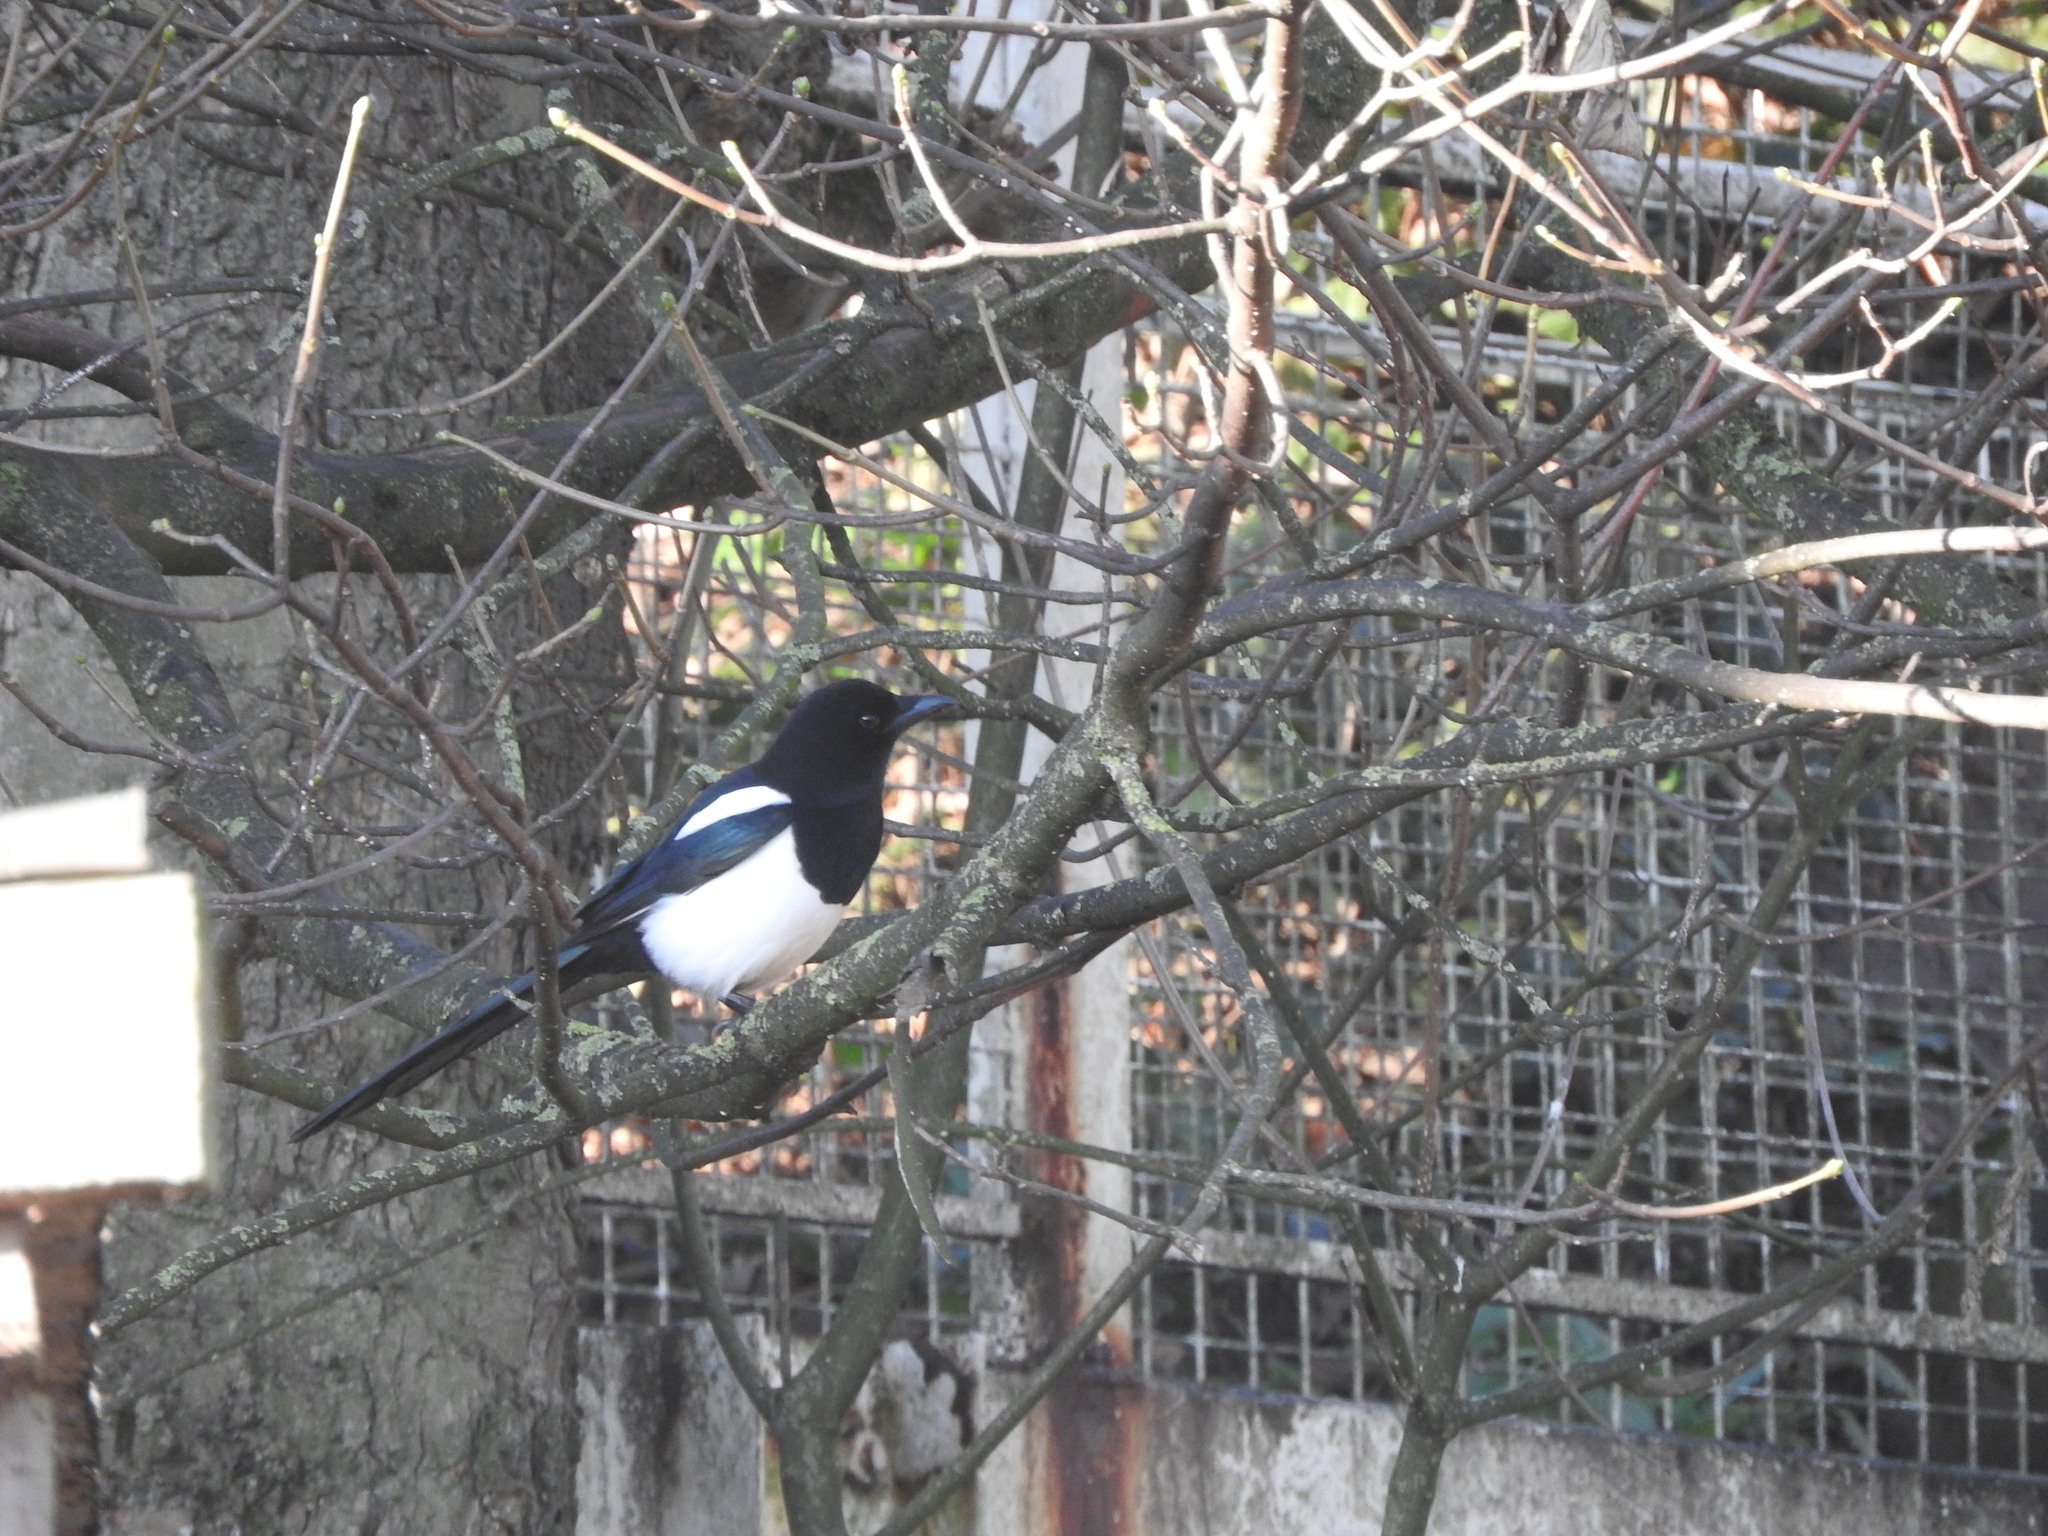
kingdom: Animalia
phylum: Chordata
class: Aves
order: Passeriformes
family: Corvidae
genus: Pica
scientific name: Pica pica
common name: Eurasian magpie
